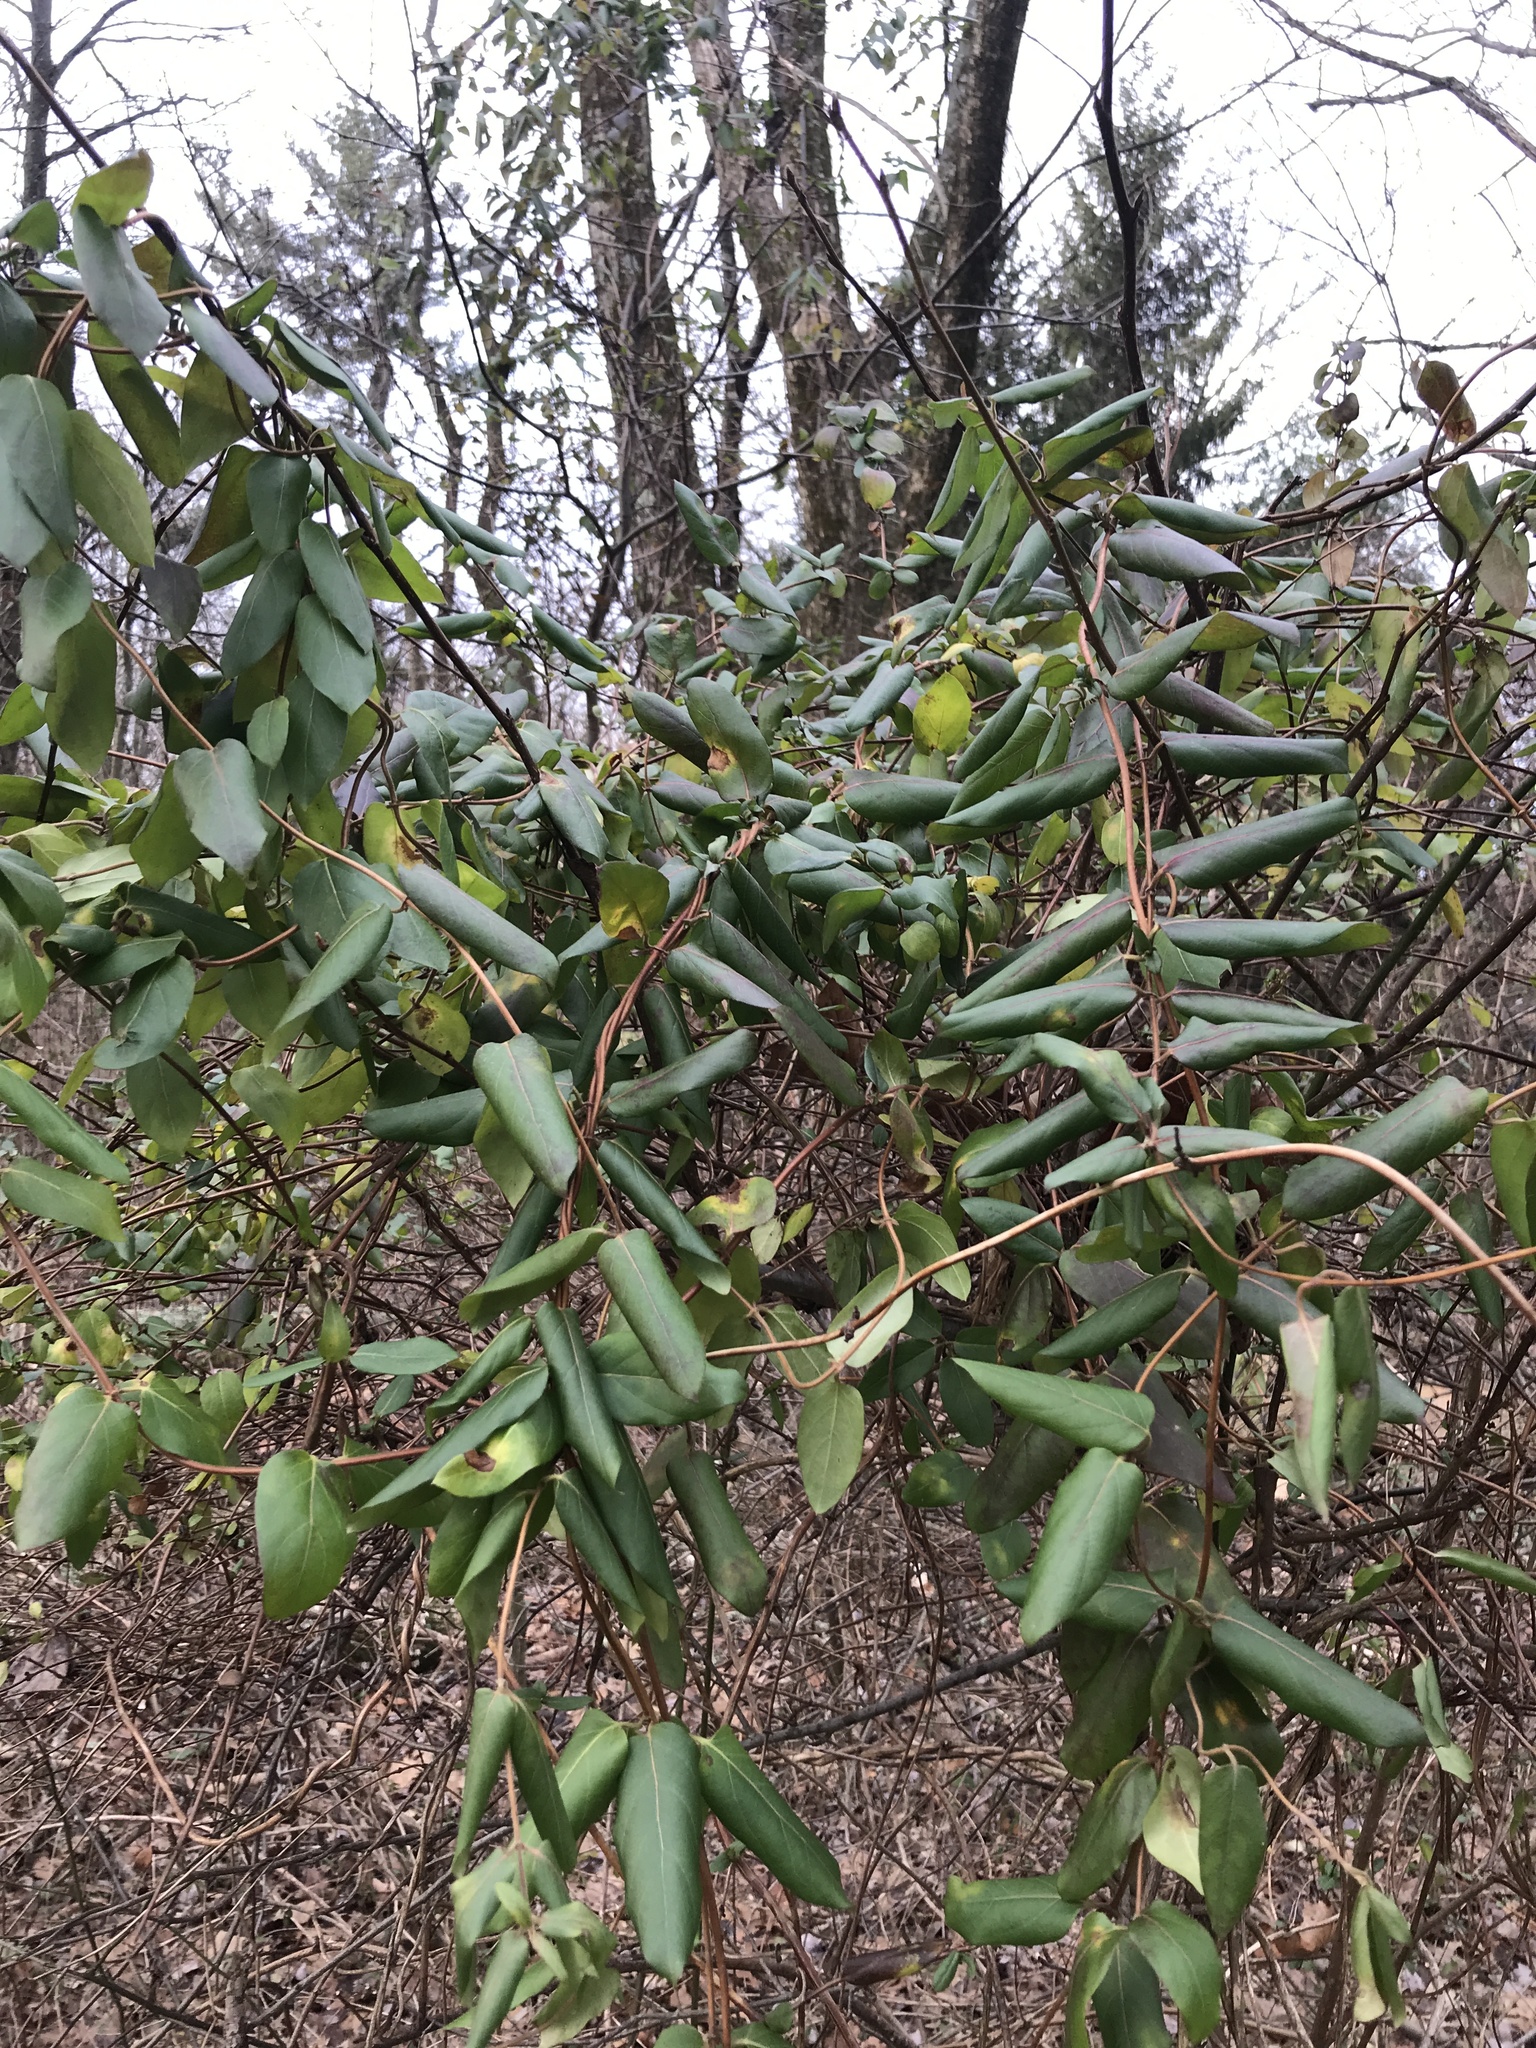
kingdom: Plantae
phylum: Tracheophyta
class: Magnoliopsida
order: Dipsacales
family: Caprifoliaceae
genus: Lonicera
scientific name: Lonicera japonica
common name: Japanese honeysuckle
